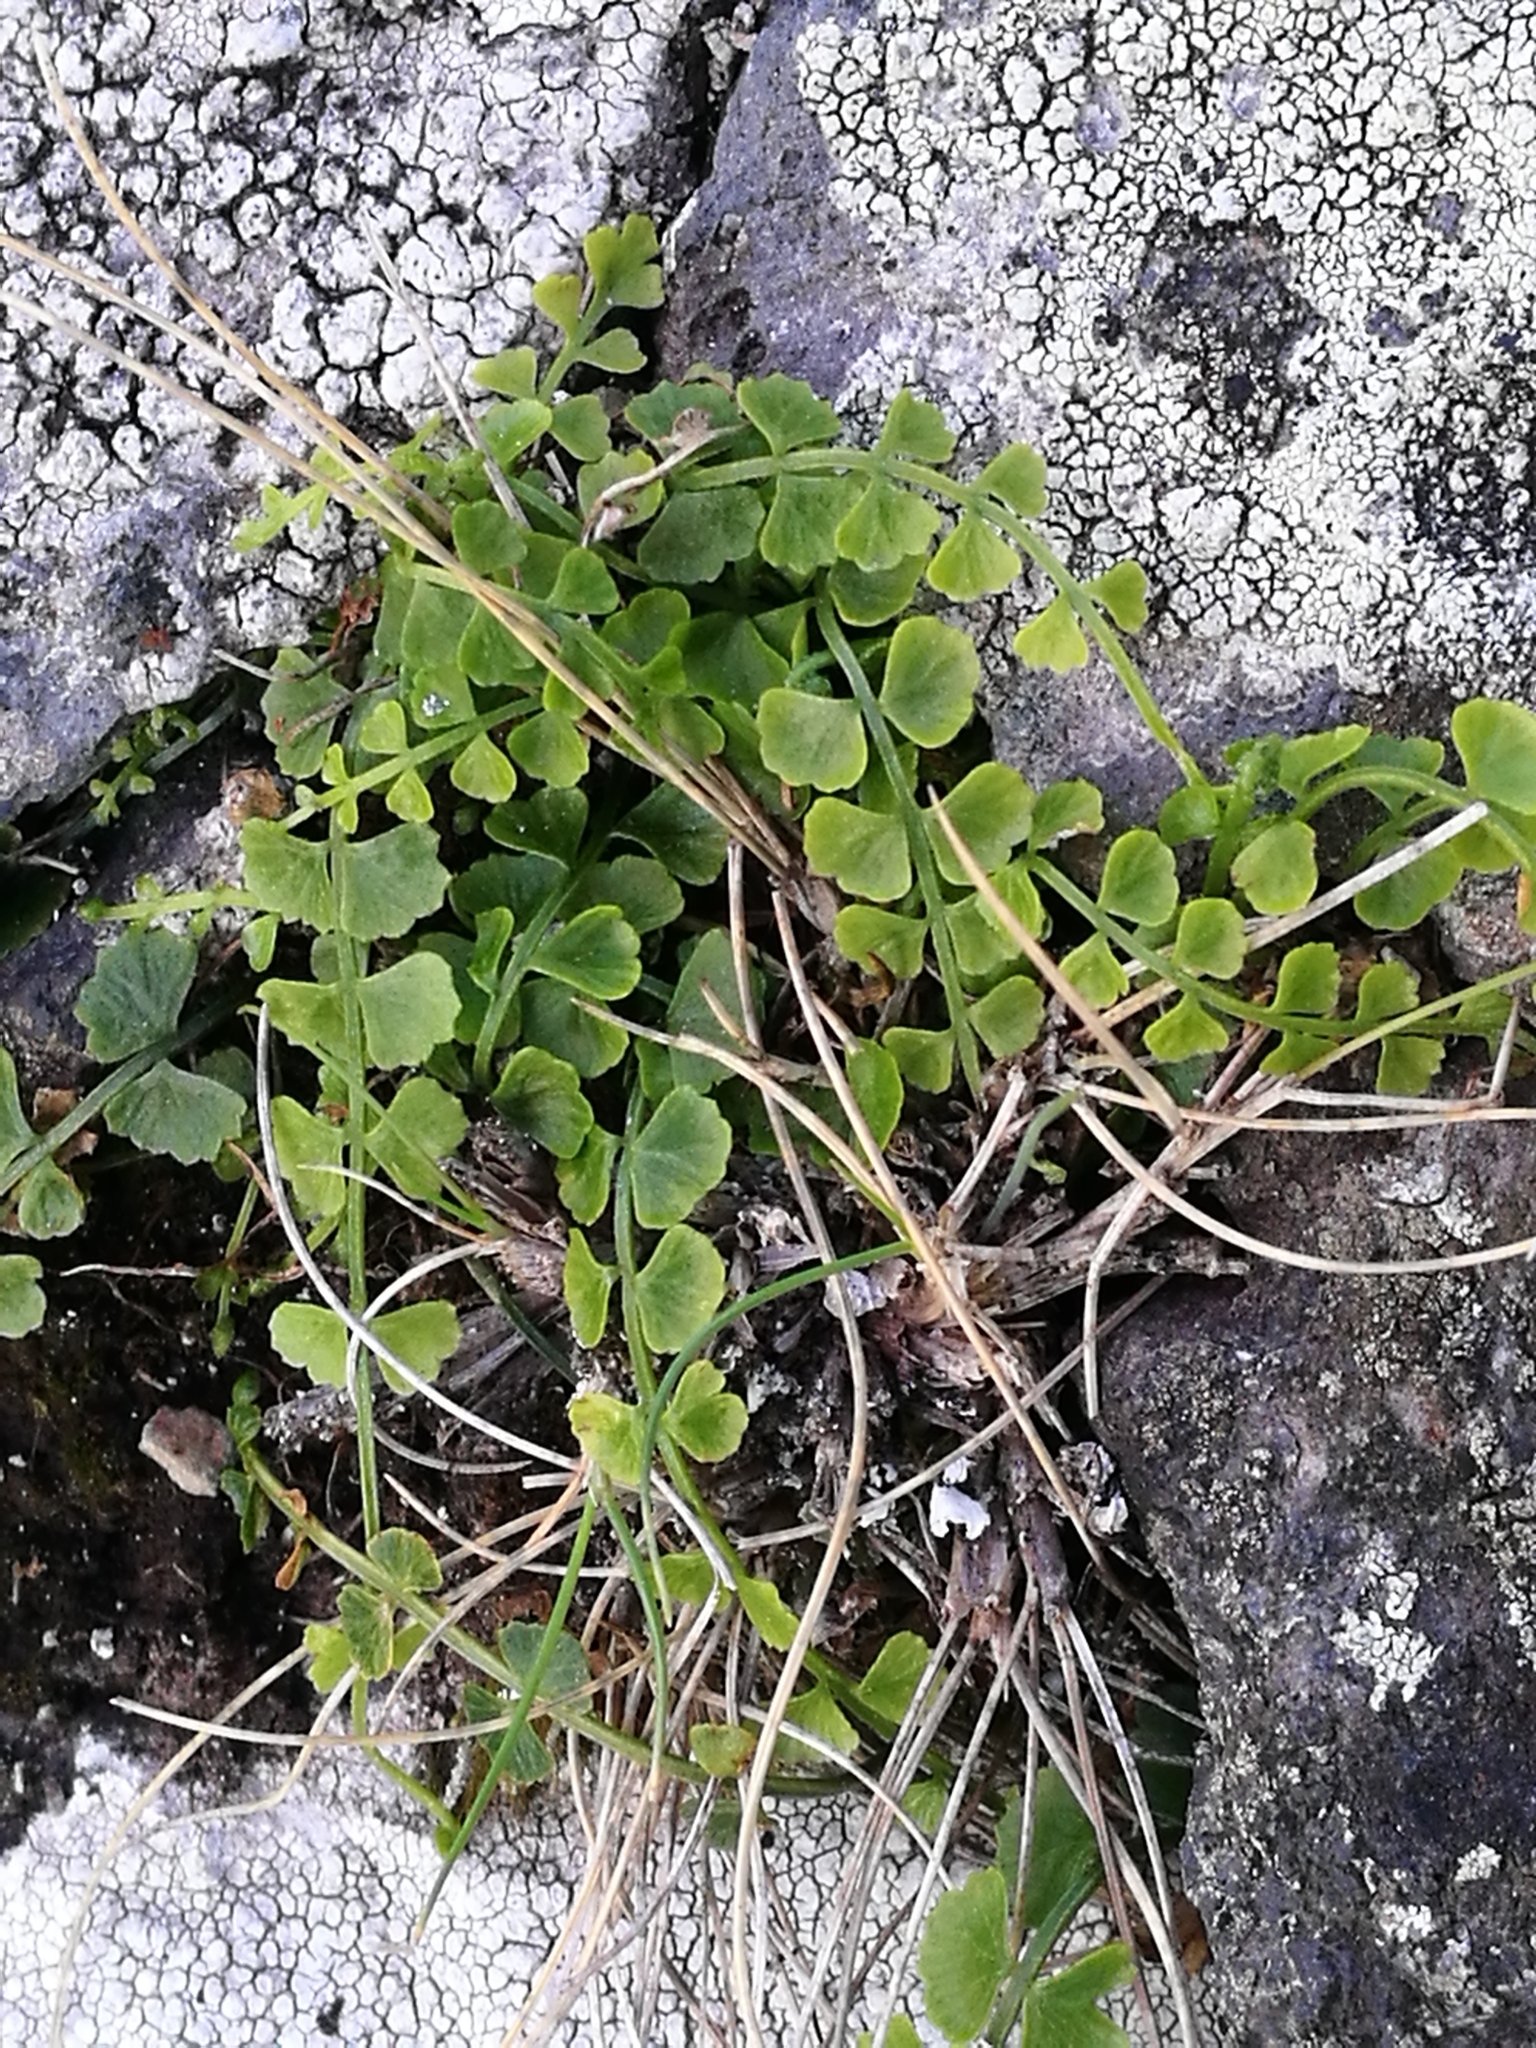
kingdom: Plantae
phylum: Tracheophyta
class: Polypodiopsida
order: Polypodiales
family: Aspleniaceae
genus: Asplenium
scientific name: Asplenium flabellifolium
